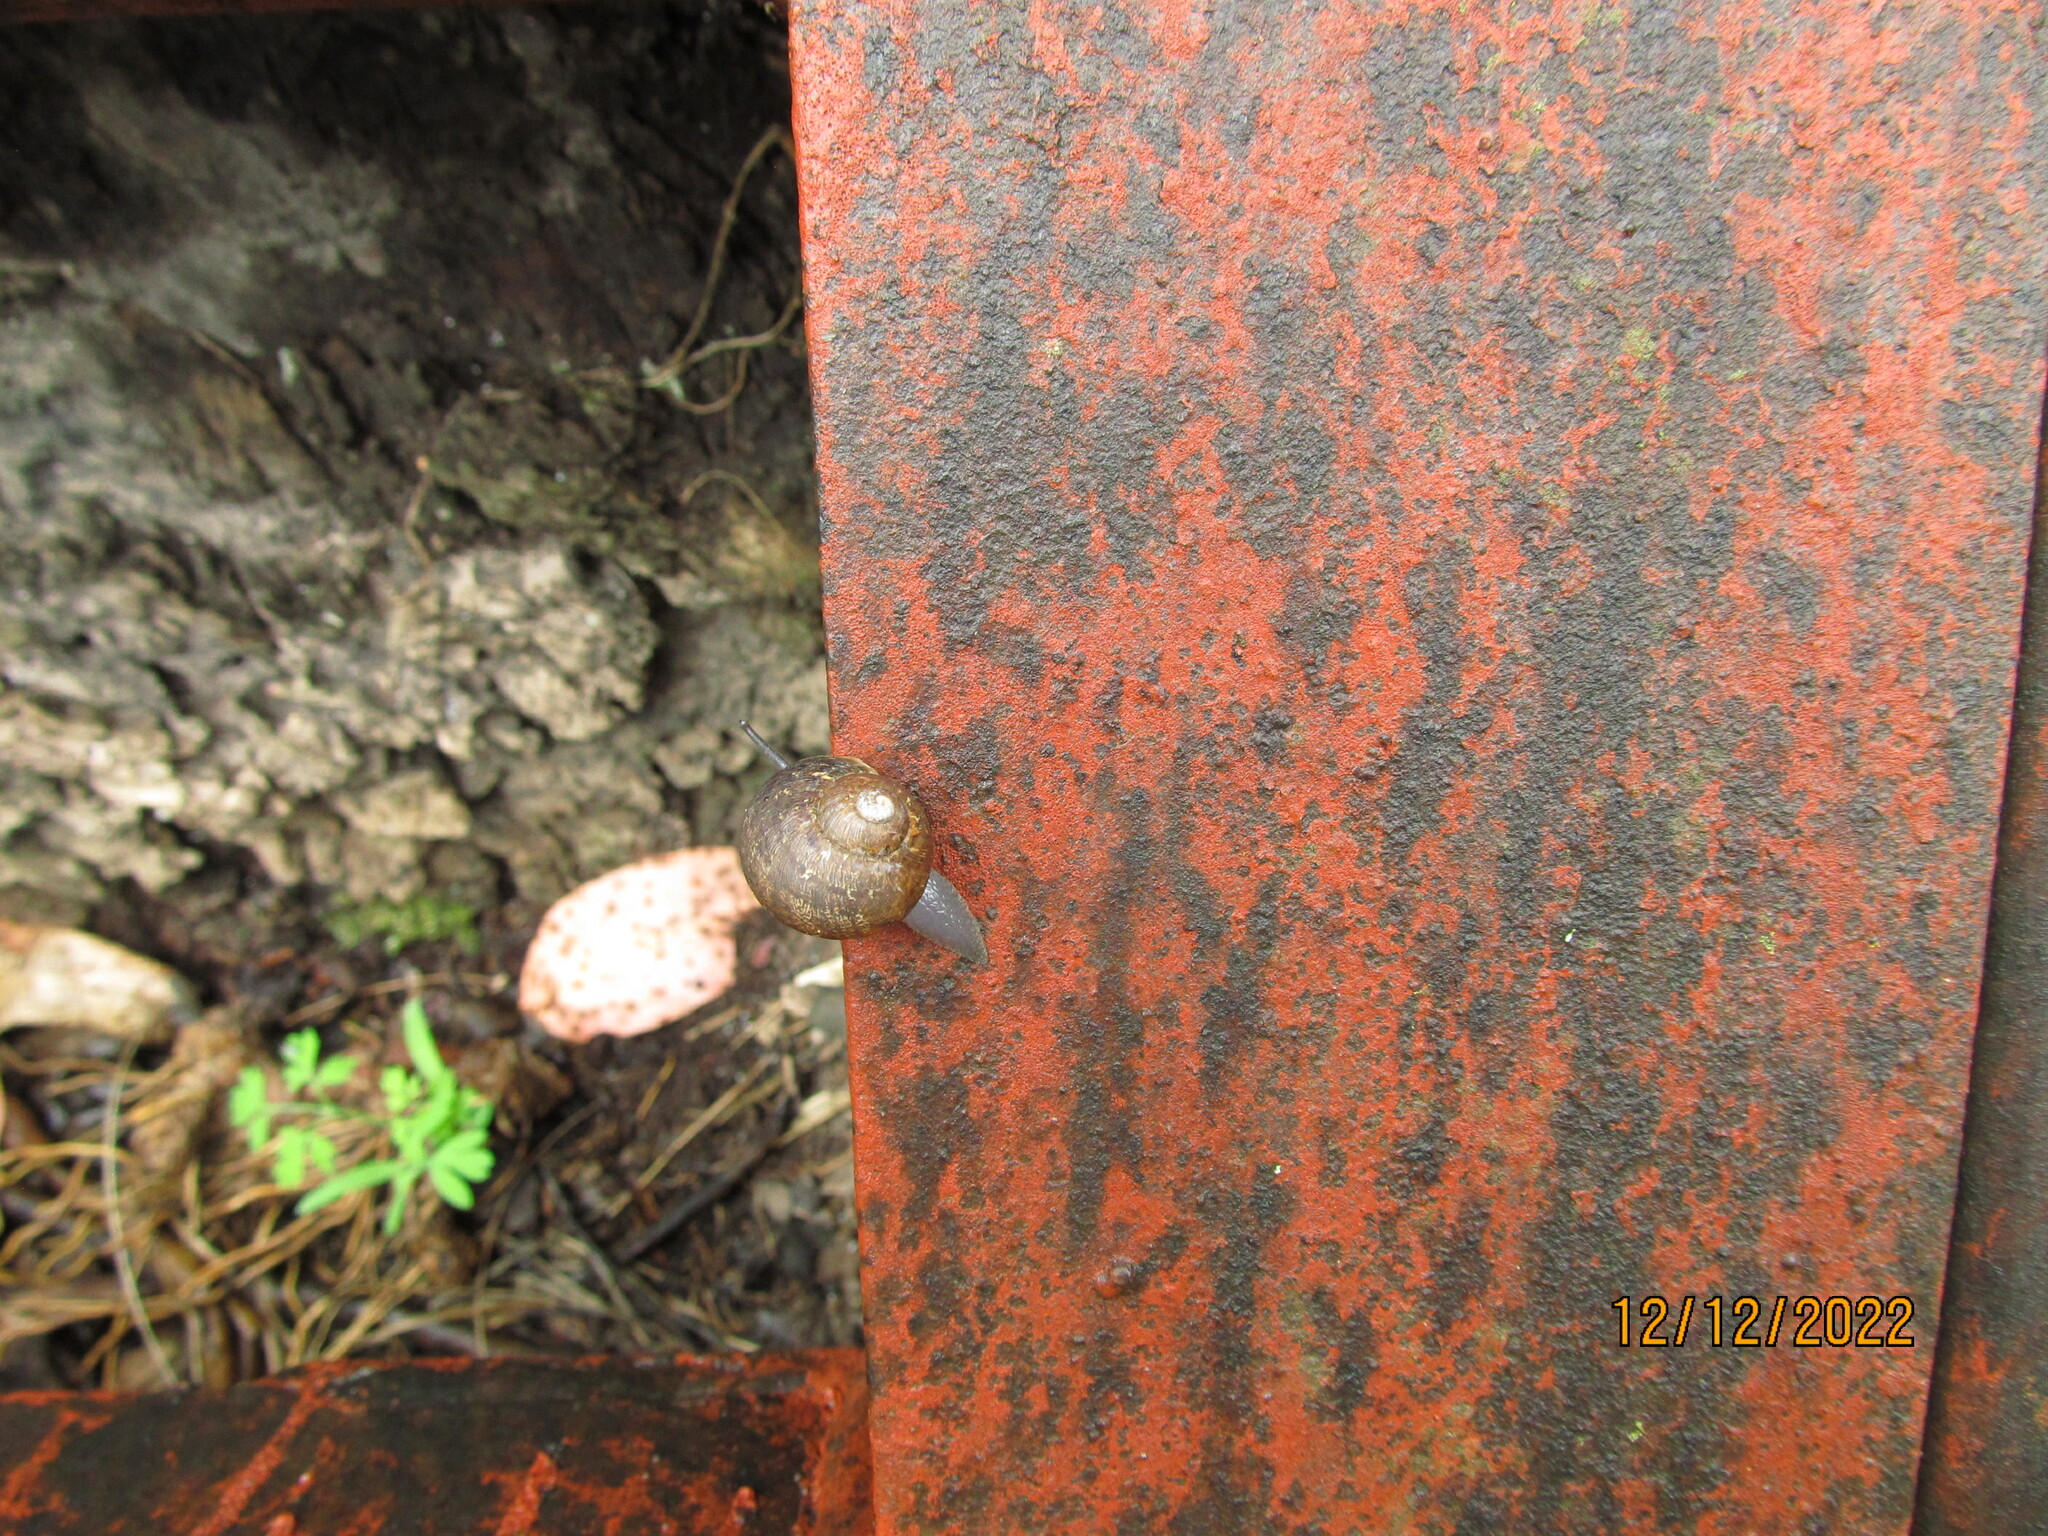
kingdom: Animalia
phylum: Mollusca
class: Gastropoda
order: Stylommatophora
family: Helicidae
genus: Cornu
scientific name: Cornu aspersum
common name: Brown garden snail
